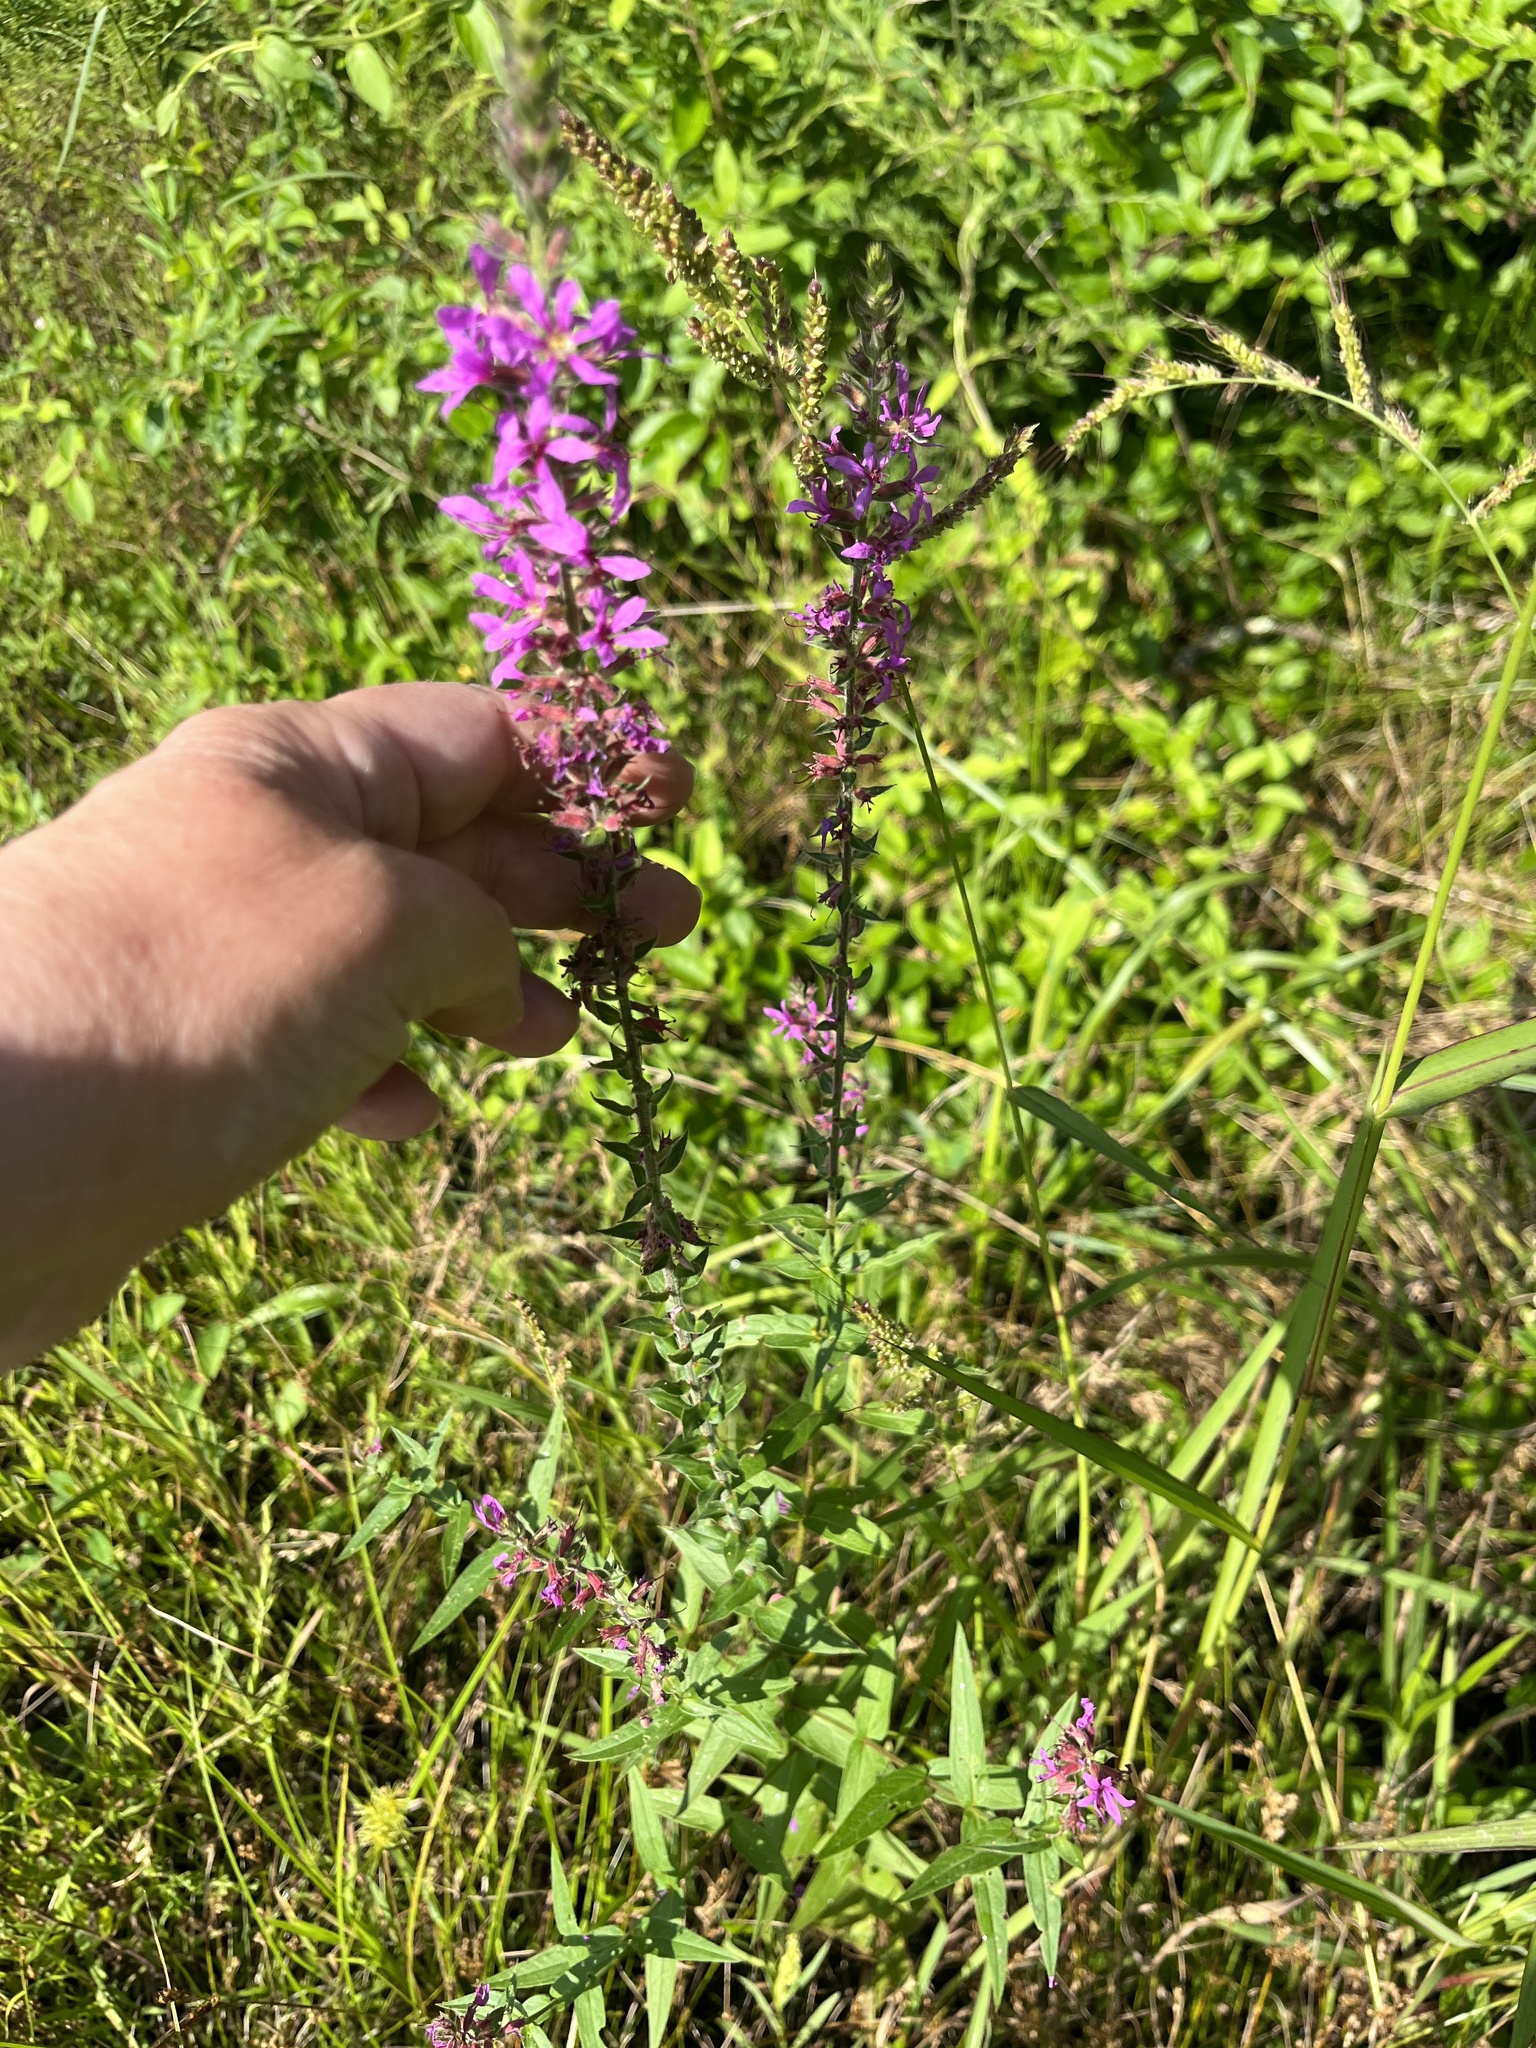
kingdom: Plantae
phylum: Tracheophyta
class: Magnoliopsida
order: Myrtales
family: Lythraceae
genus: Lythrum
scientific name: Lythrum salicaria
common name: Purple loosestrife
